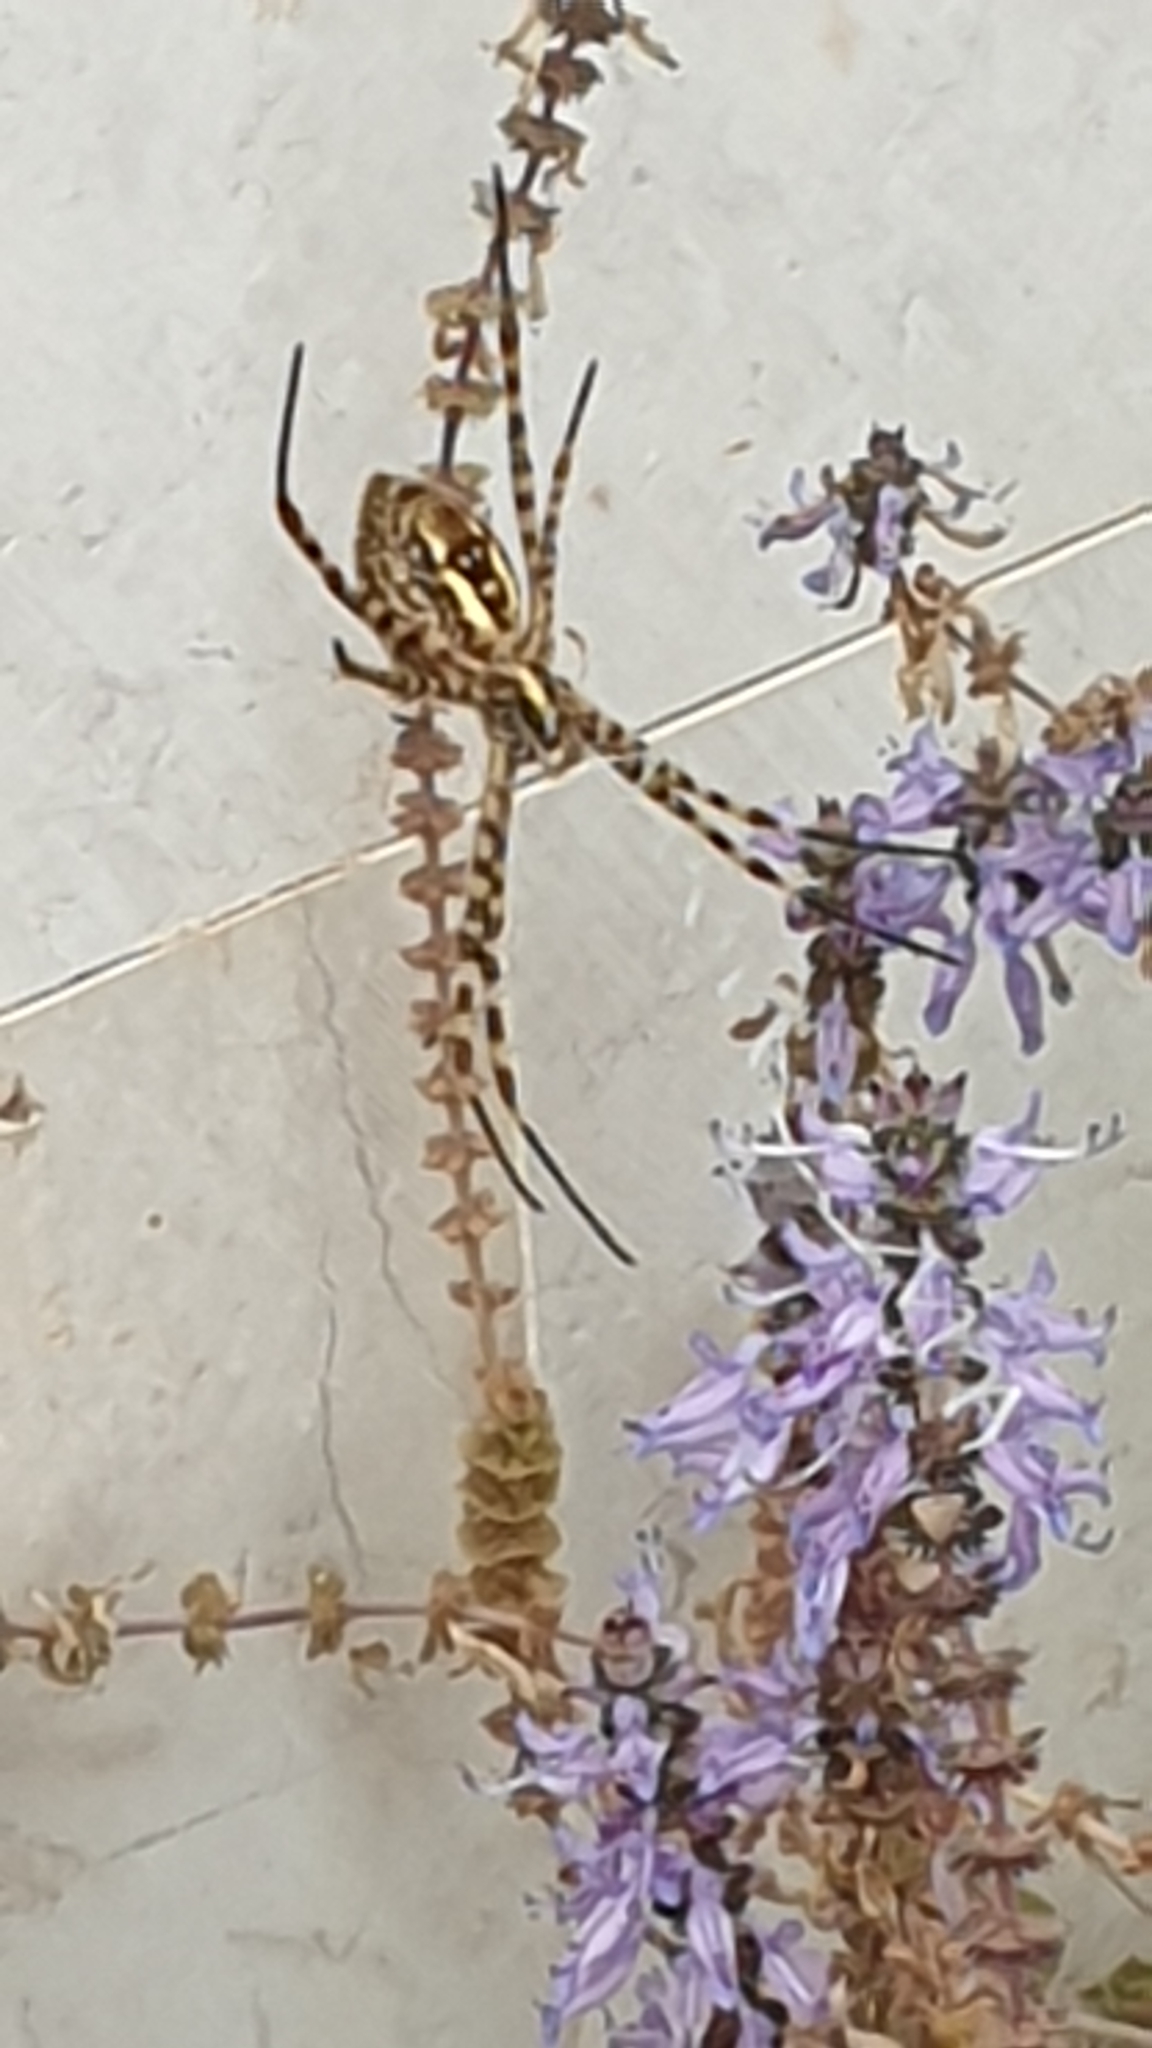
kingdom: Animalia
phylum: Arthropoda
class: Arachnida
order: Araneae
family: Araneidae
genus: Argiope
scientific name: Argiope trifasciata
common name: Banded garden spider
